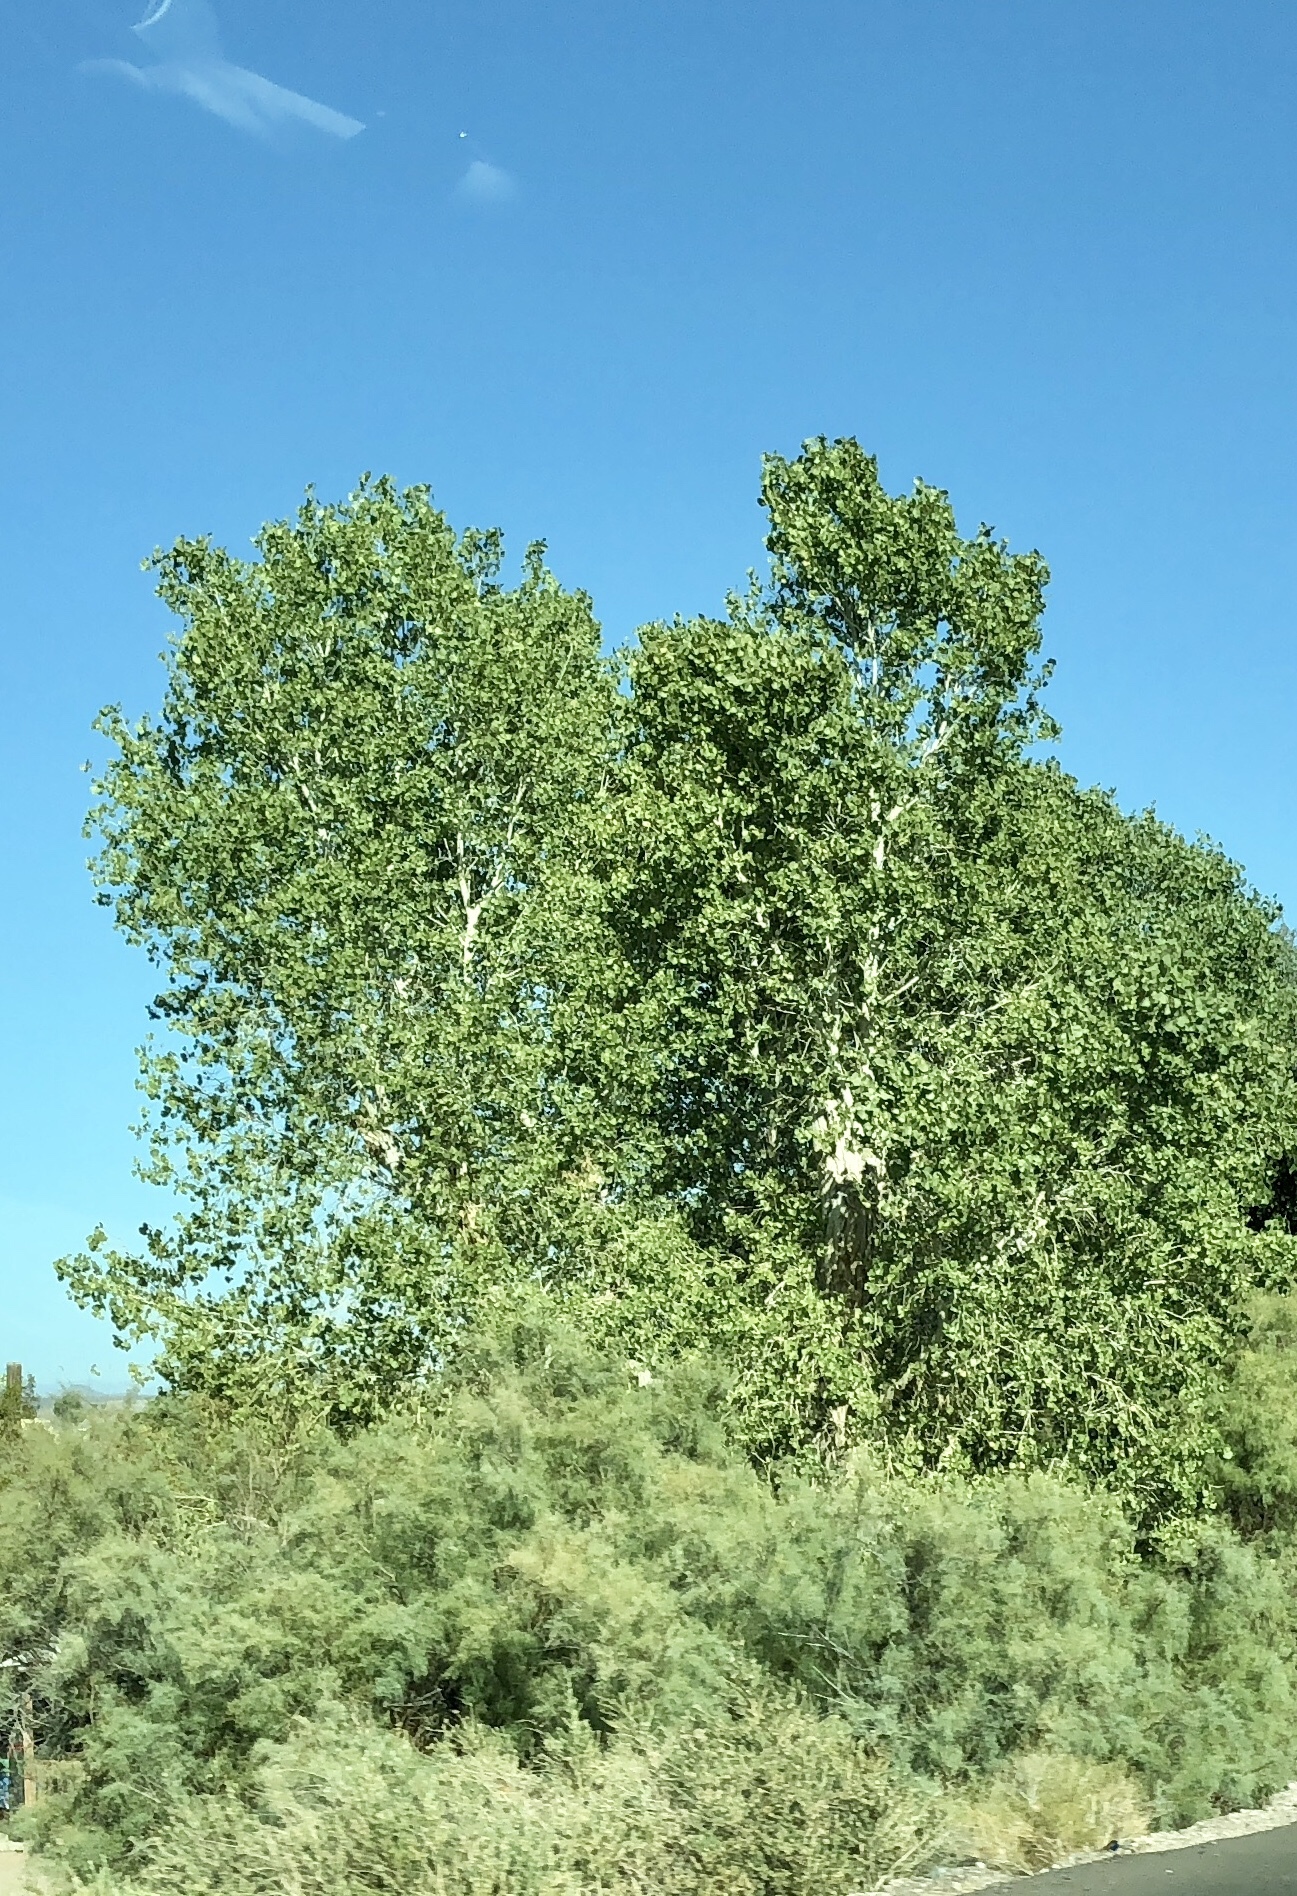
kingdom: Plantae
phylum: Tracheophyta
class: Magnoliopsida
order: Malpighiales
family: Salicaceae
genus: Populus
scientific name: Populus fremontii
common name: Fremont's cottonwood
